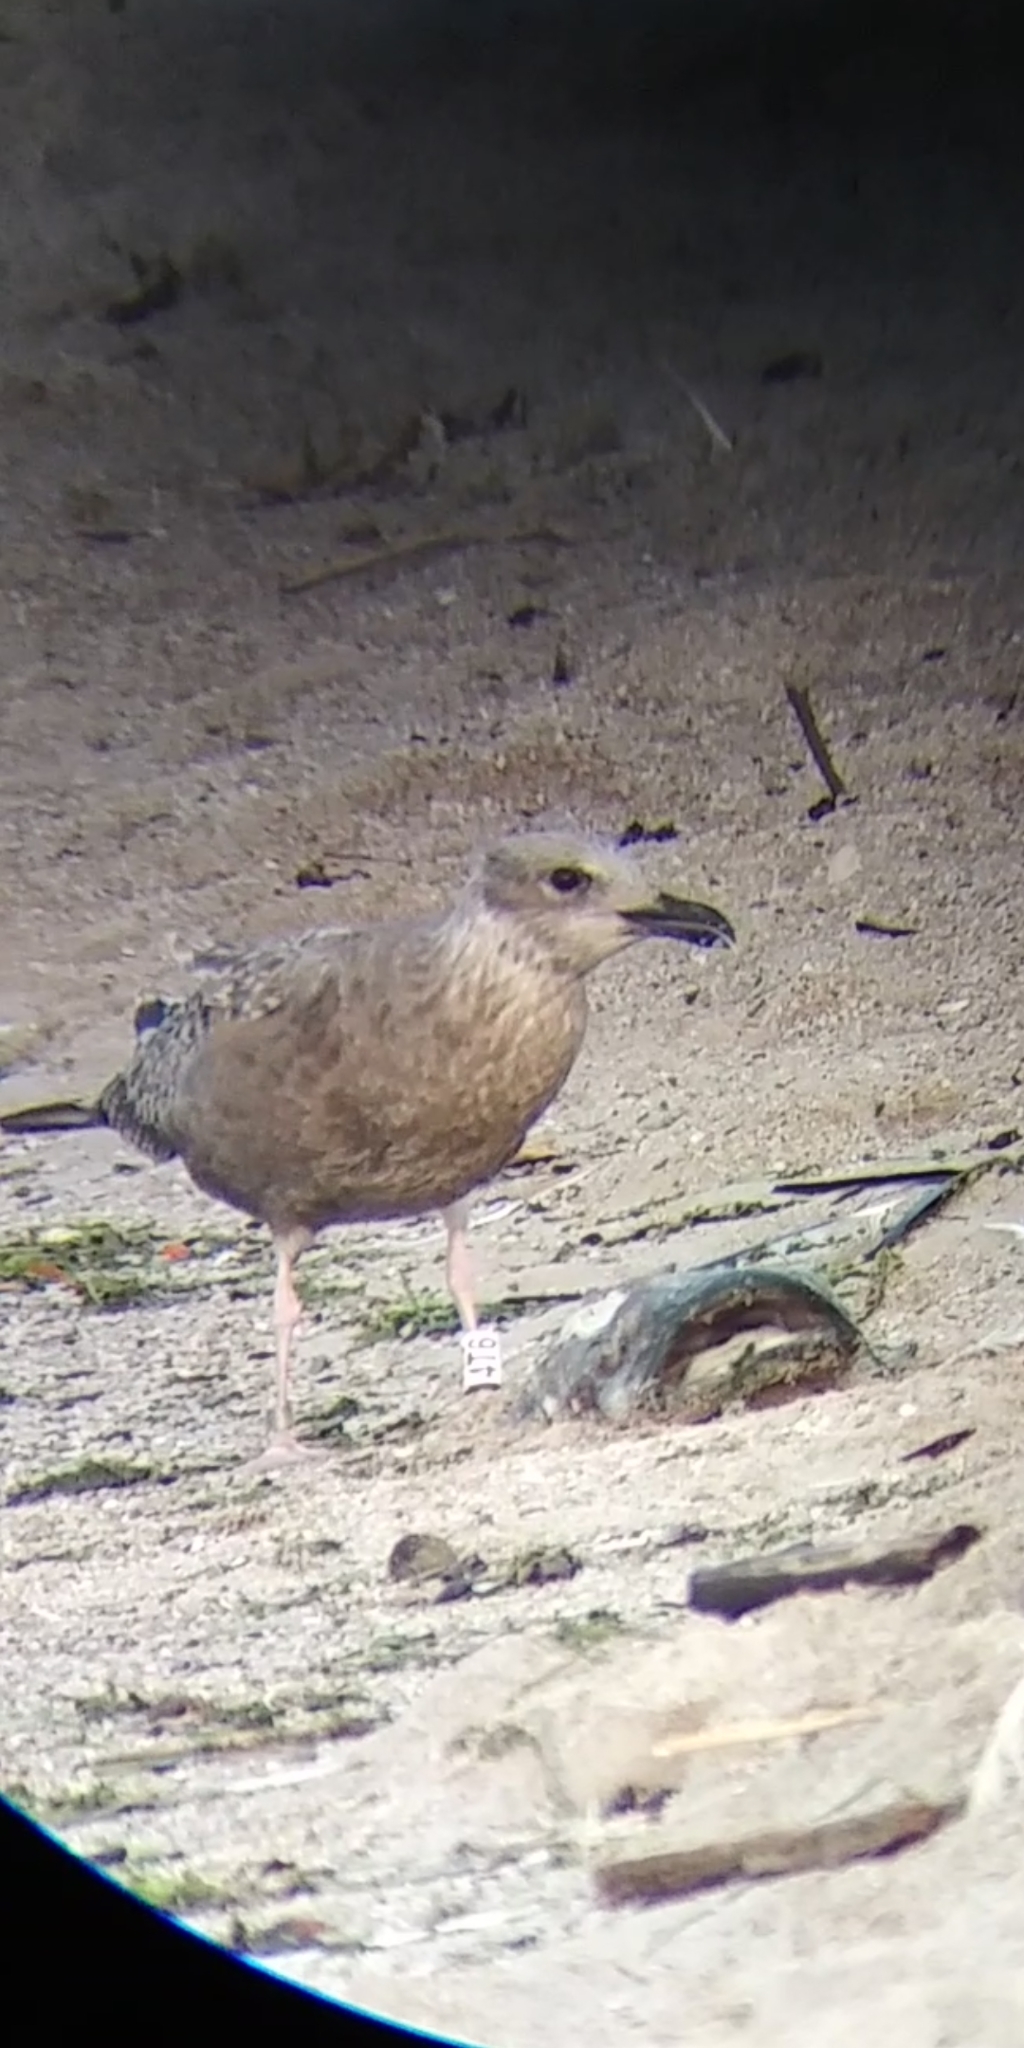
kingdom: Animalia
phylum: Chordata
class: Aves
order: Charadriiformes
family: Laridae
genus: Larus
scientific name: Larus argentatus
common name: Herring gull
